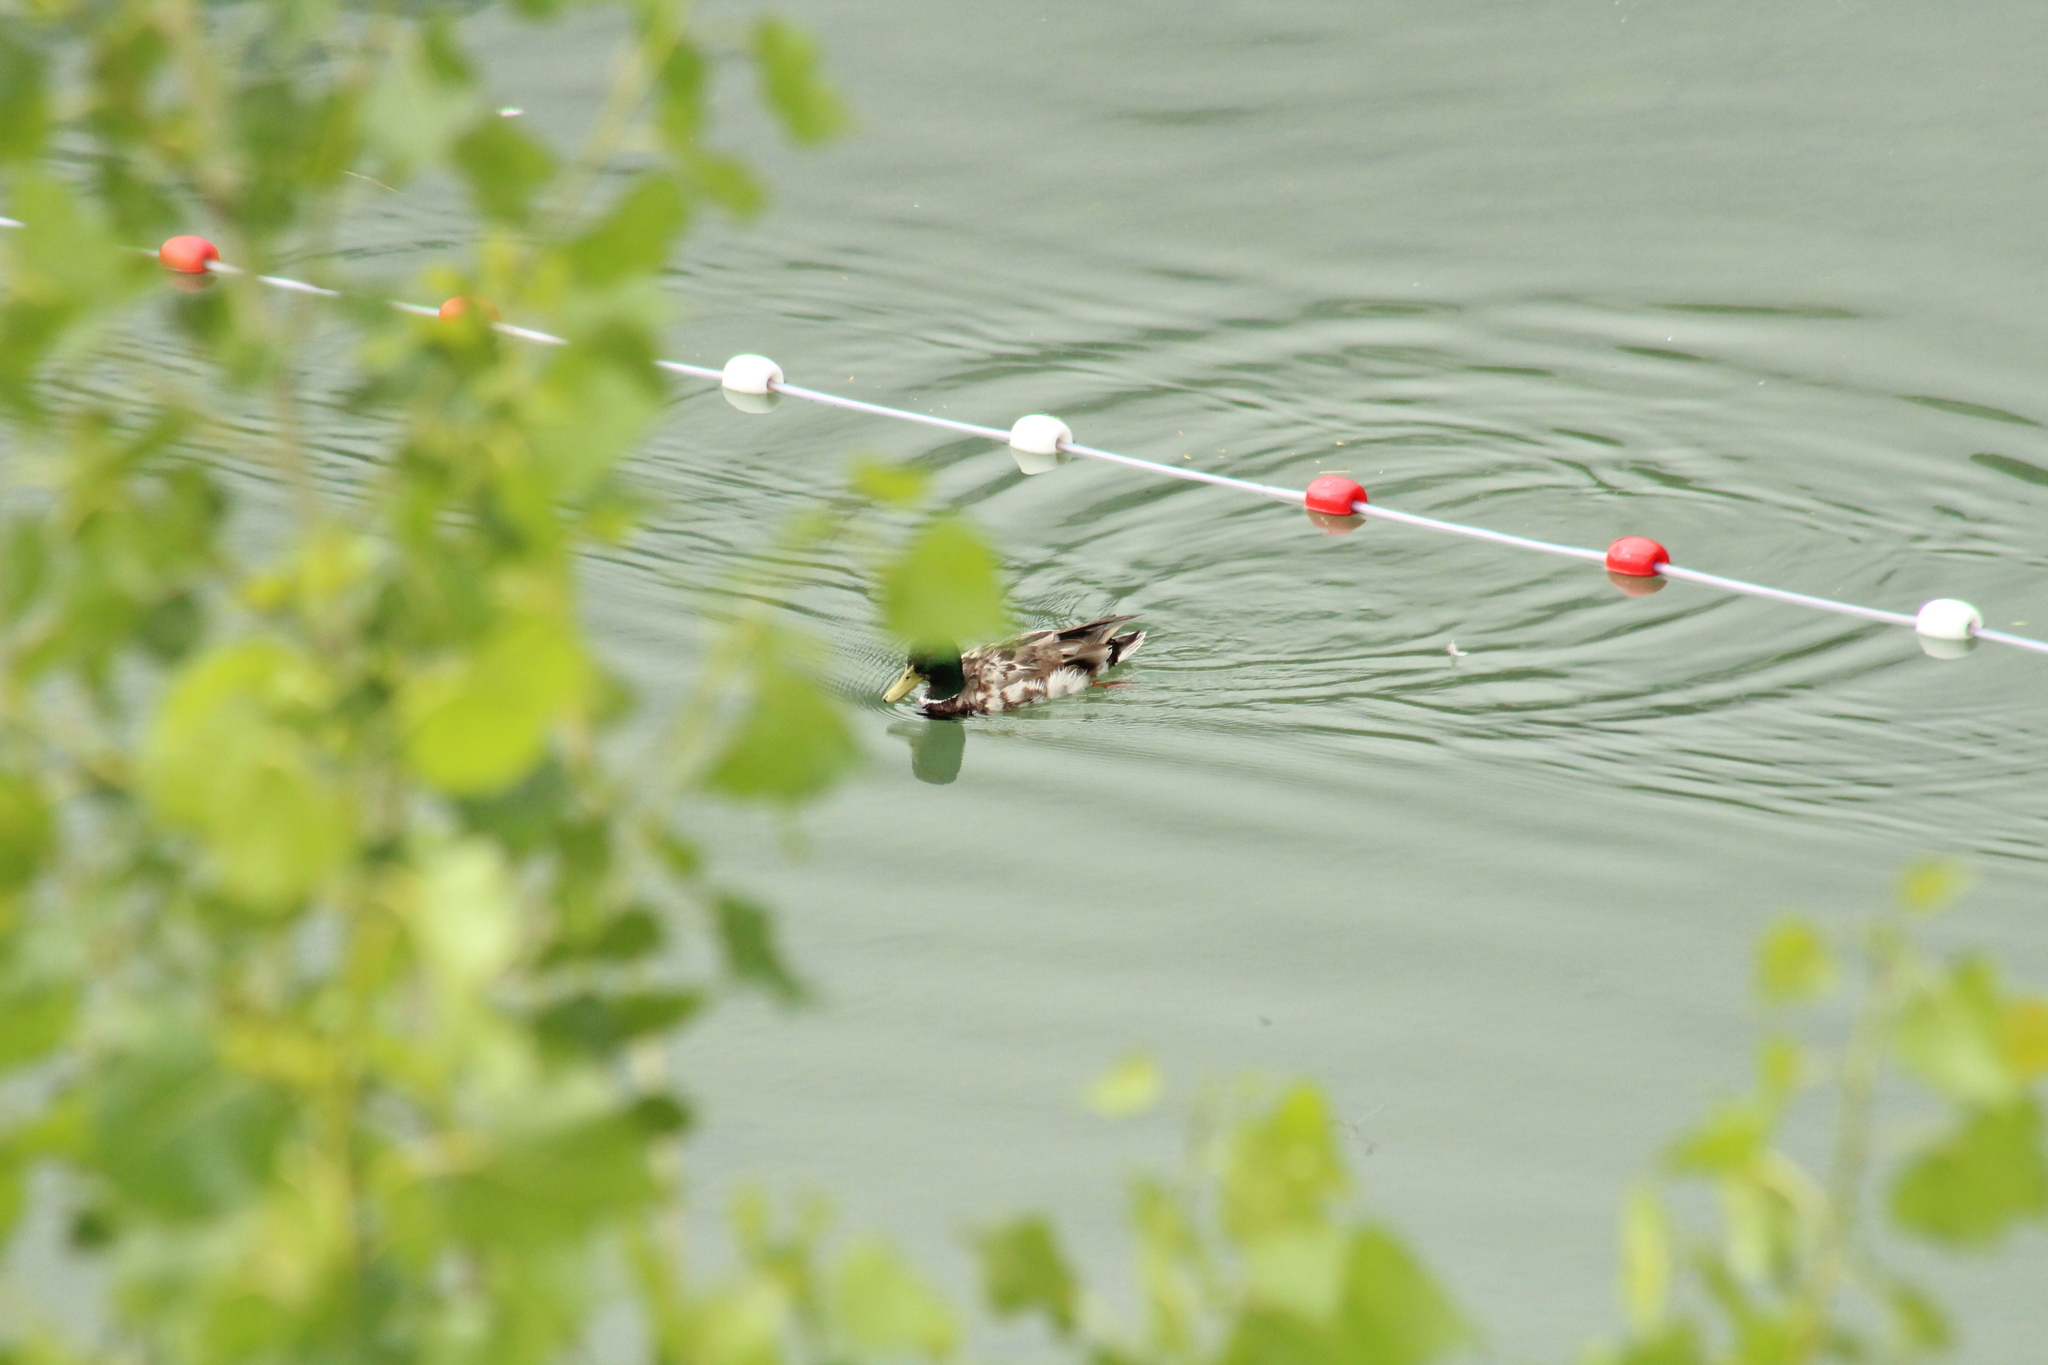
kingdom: Animalia
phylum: Chordata
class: Aves
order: Anseriformes
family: Anatidae
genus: Anas
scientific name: Anas platyrhynchos
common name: Mallard
